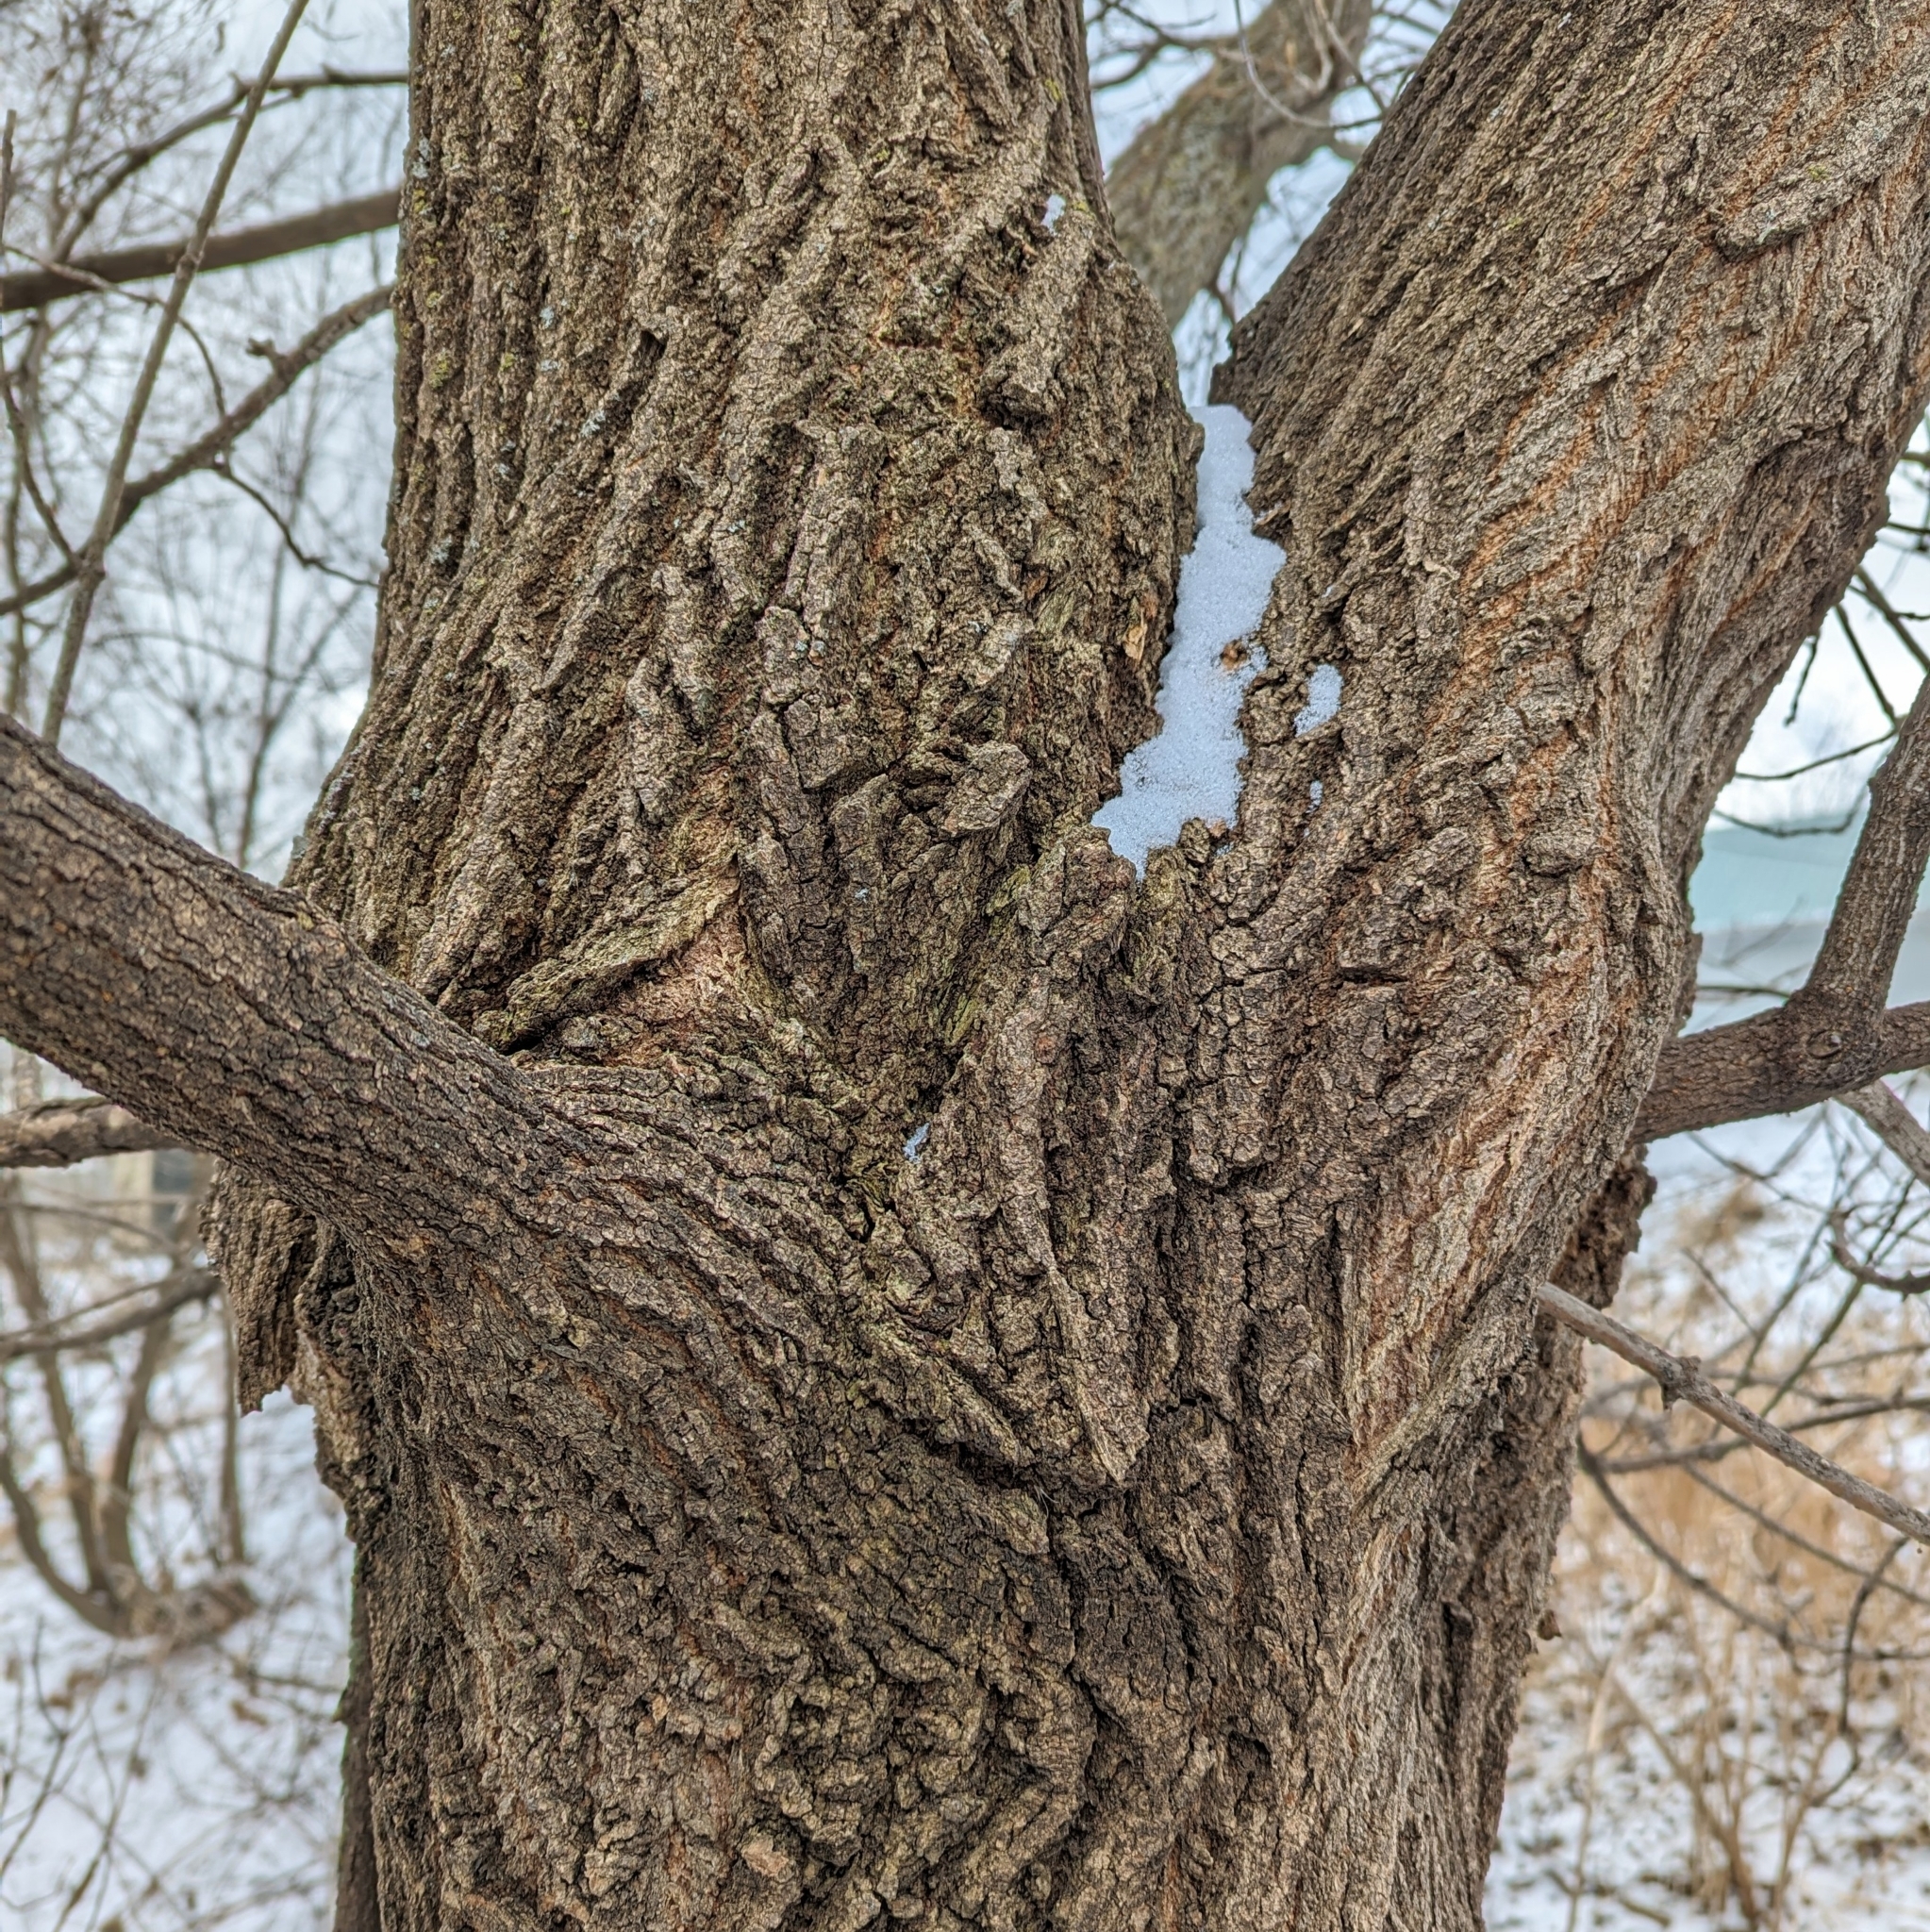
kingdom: Plantae
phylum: Tracheophyta
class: Magnoliopsida
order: Sapindales
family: Sapindaceae
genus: Acer
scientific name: Acer negundo
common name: Ashleaf maple
